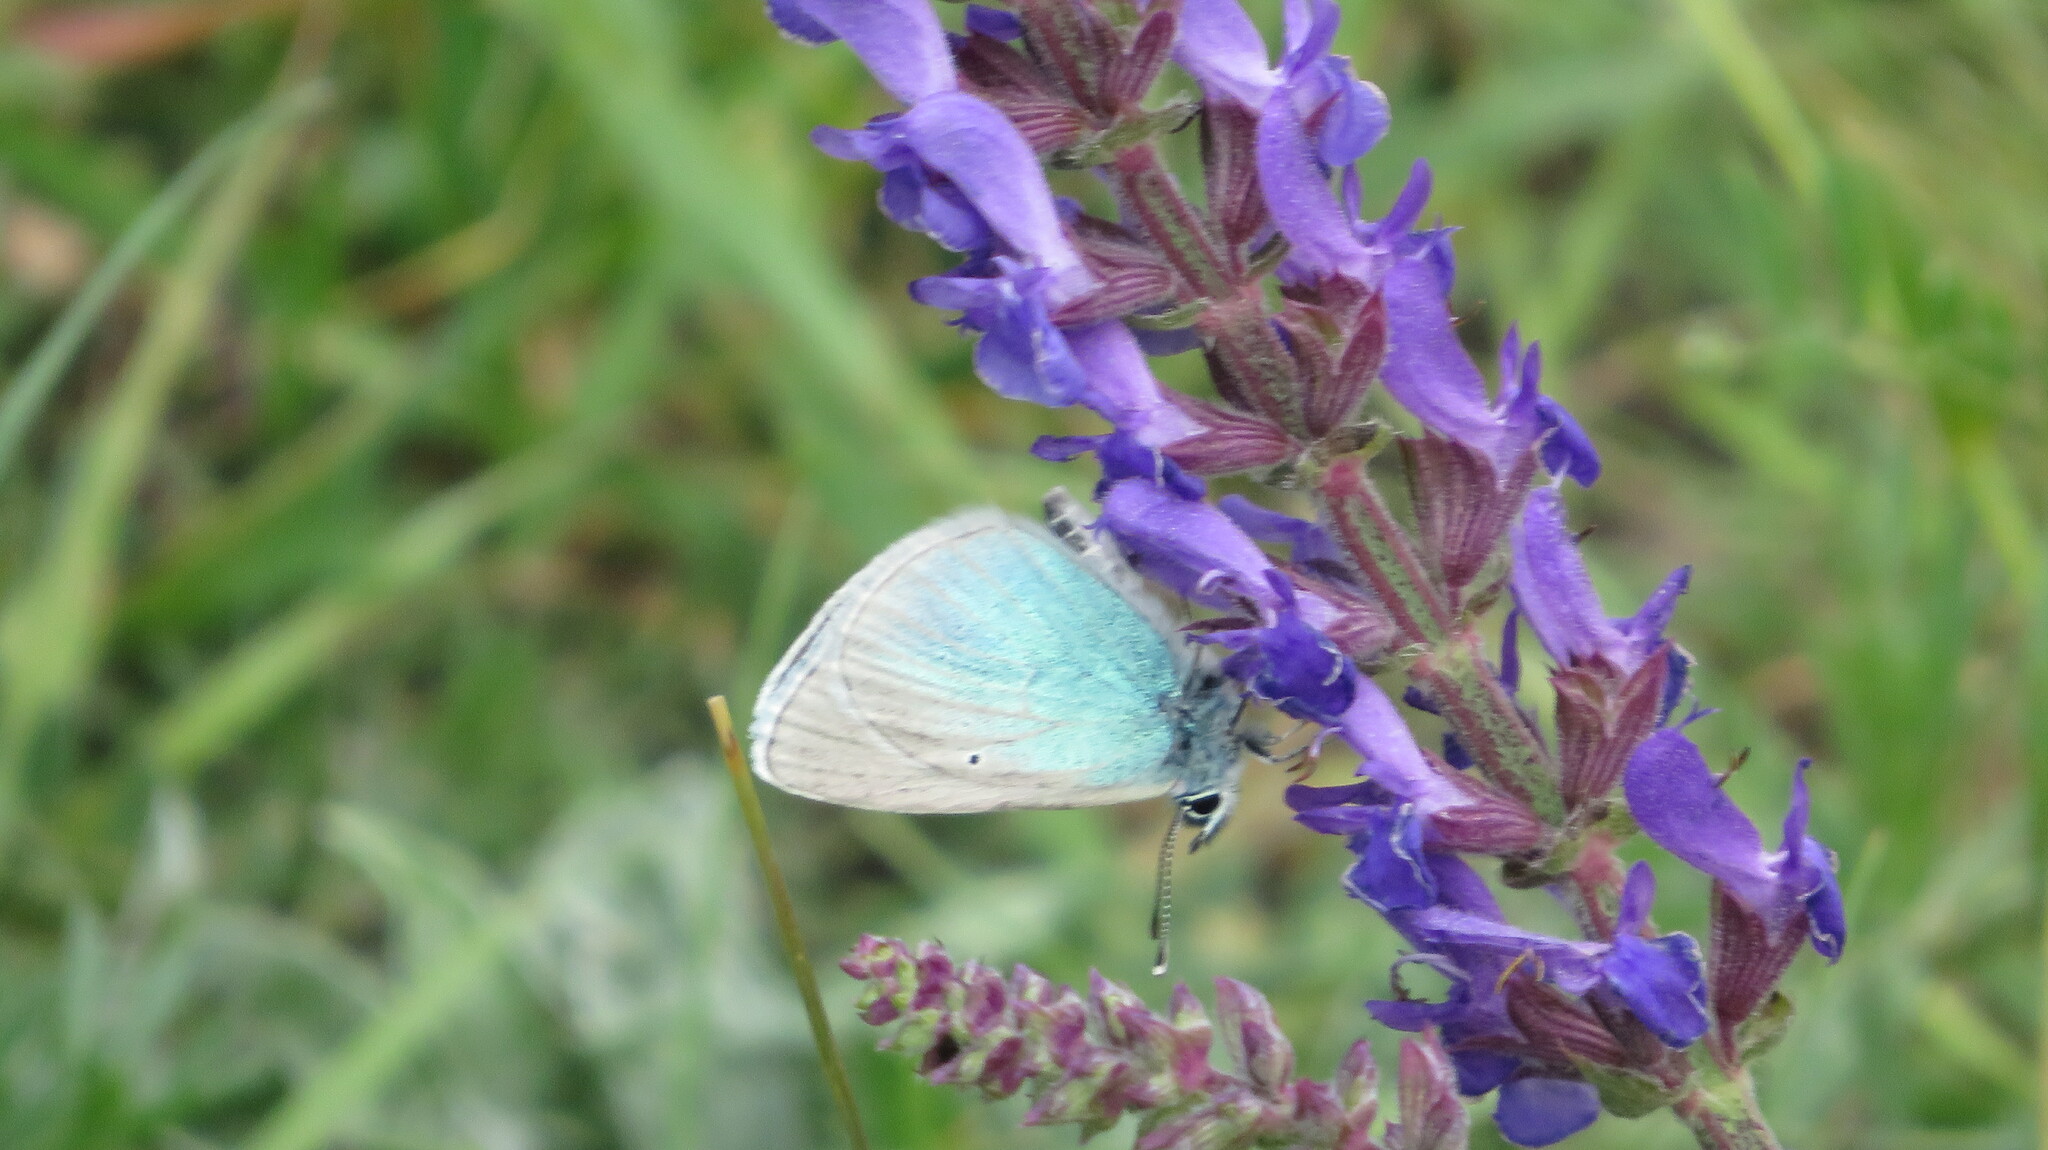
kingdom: Animalia
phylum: Arthropoda
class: Insecta
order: Lepidoptera
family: Lycaenidae
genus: Glaucopsyche
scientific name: Glaucopsyche alexis
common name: Green-underside blue
